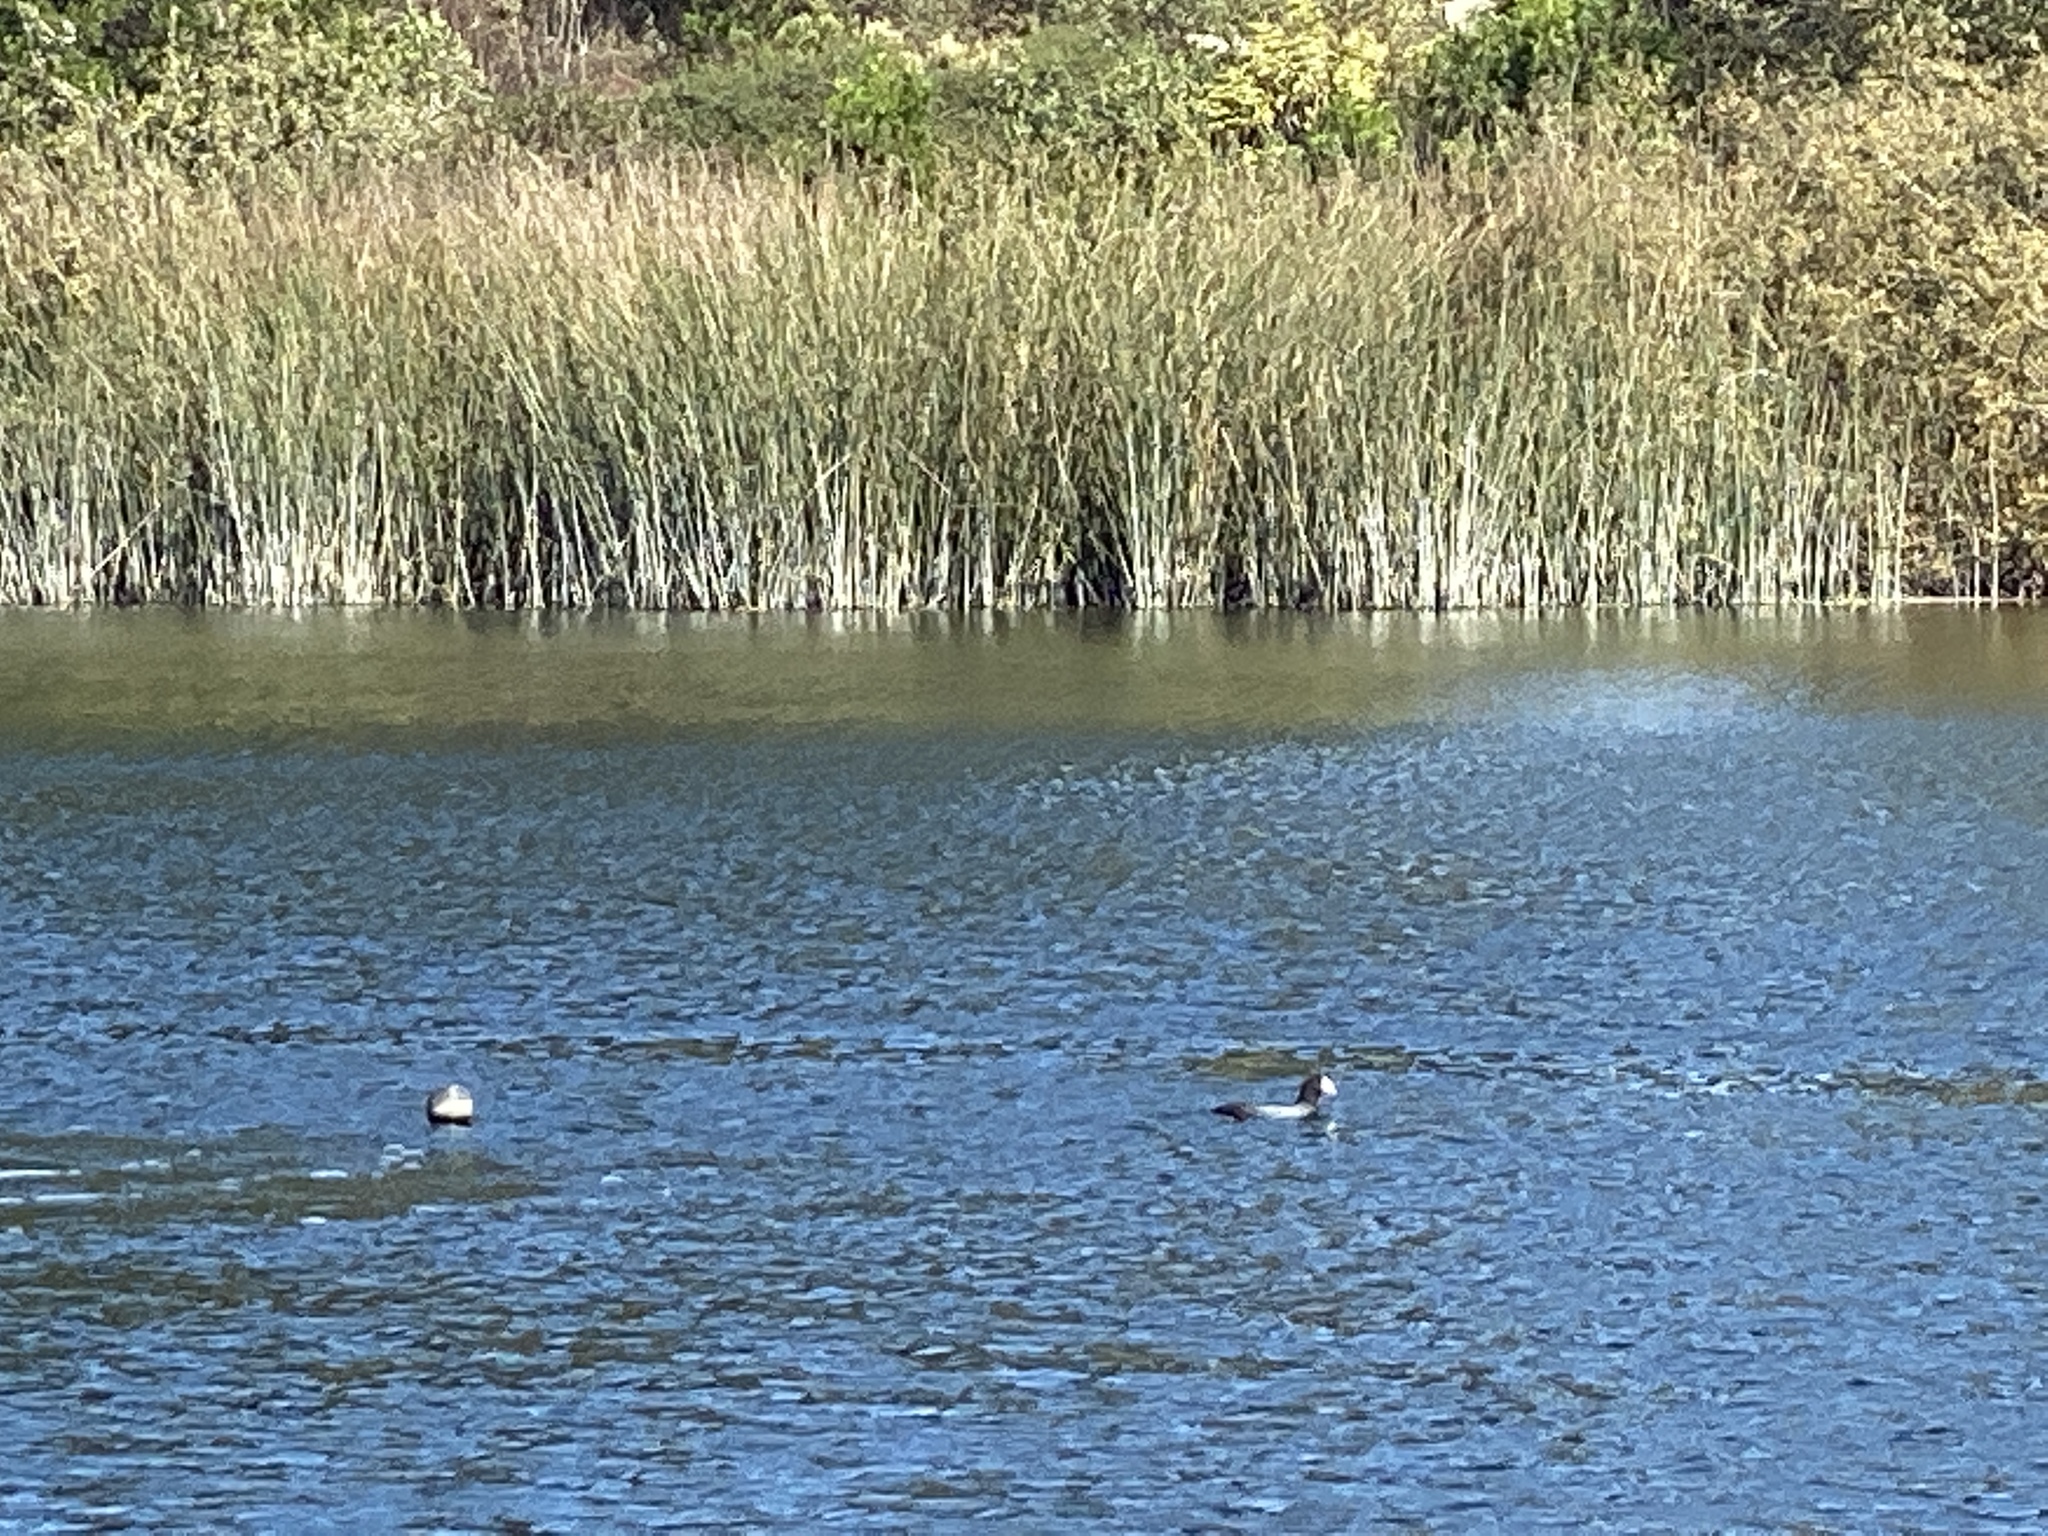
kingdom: Animalia
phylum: Chordata
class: Aves
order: Gruiformes
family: Rallidae
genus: Fulica
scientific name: Fulica americana
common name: American coot
